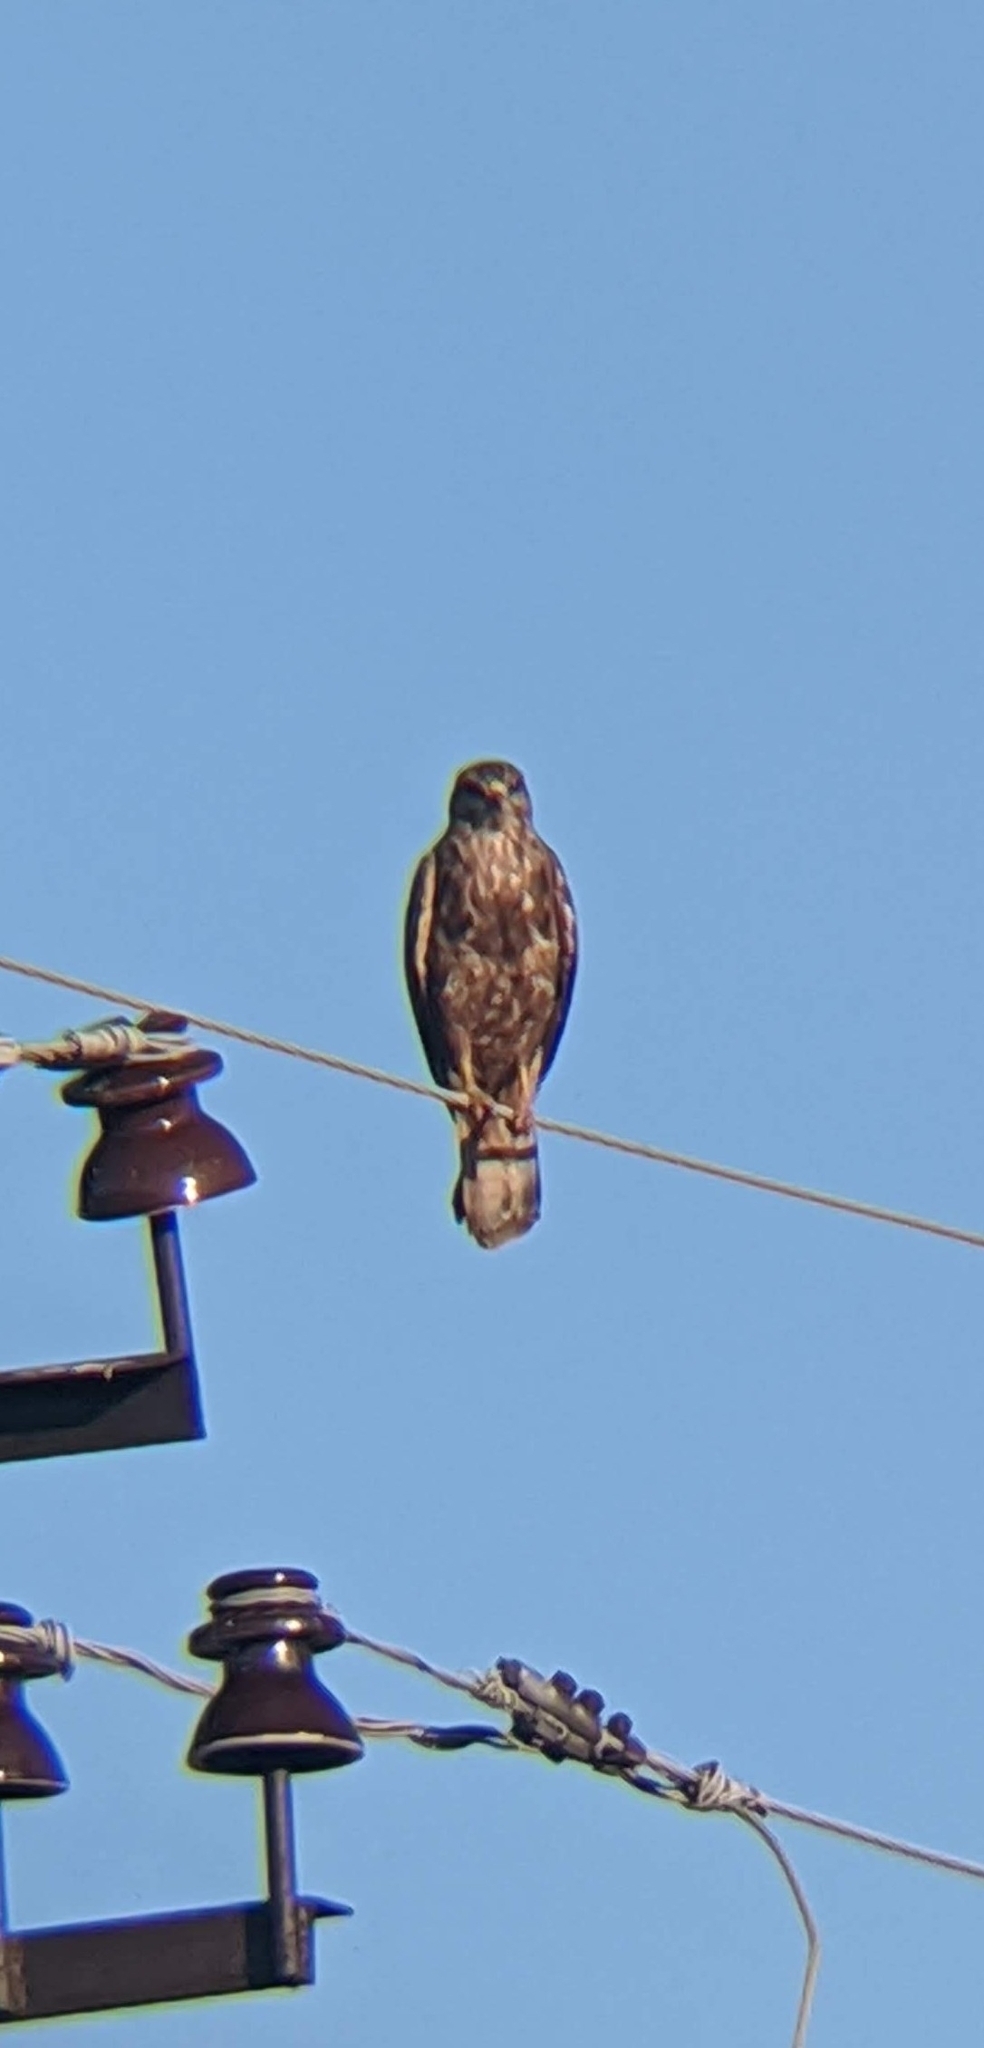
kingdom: Animalia
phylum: Chordata
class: Aves
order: Accipitriformes
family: Accipitridae
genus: Buteo
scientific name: Buteo buteo
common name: Common buzzard
